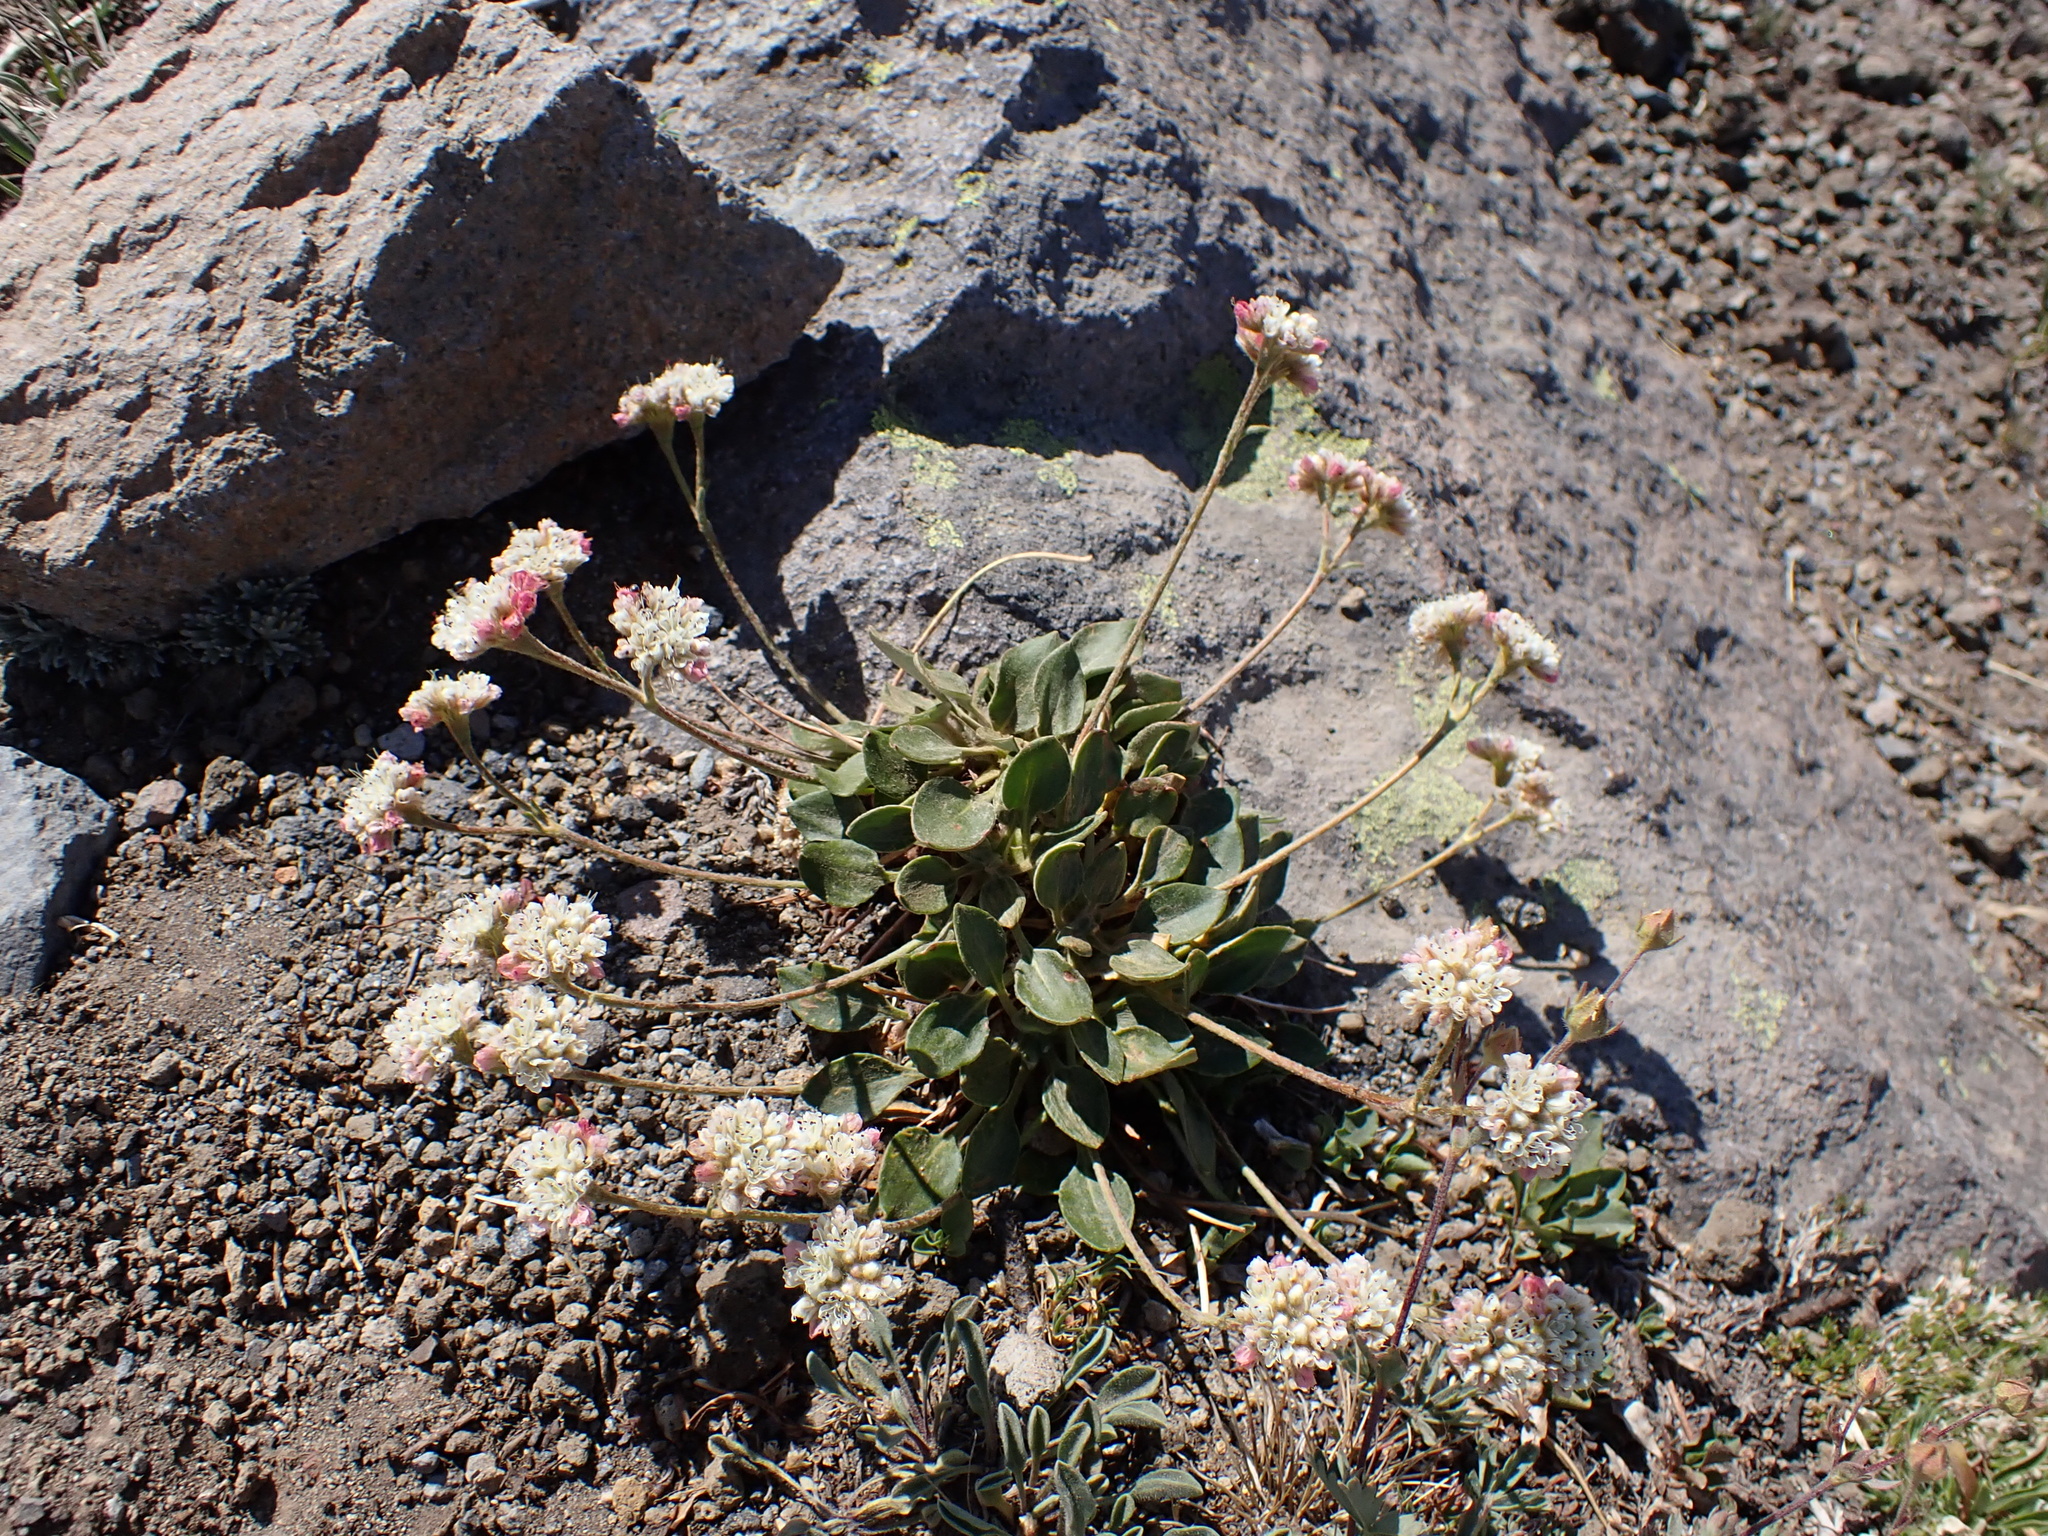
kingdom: Plantae
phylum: Tracheophyta
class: Magnoliopsida
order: Caryophyllales
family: Polygonaceae
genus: Eriogonum
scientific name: Eriogonum pyrolifolium
